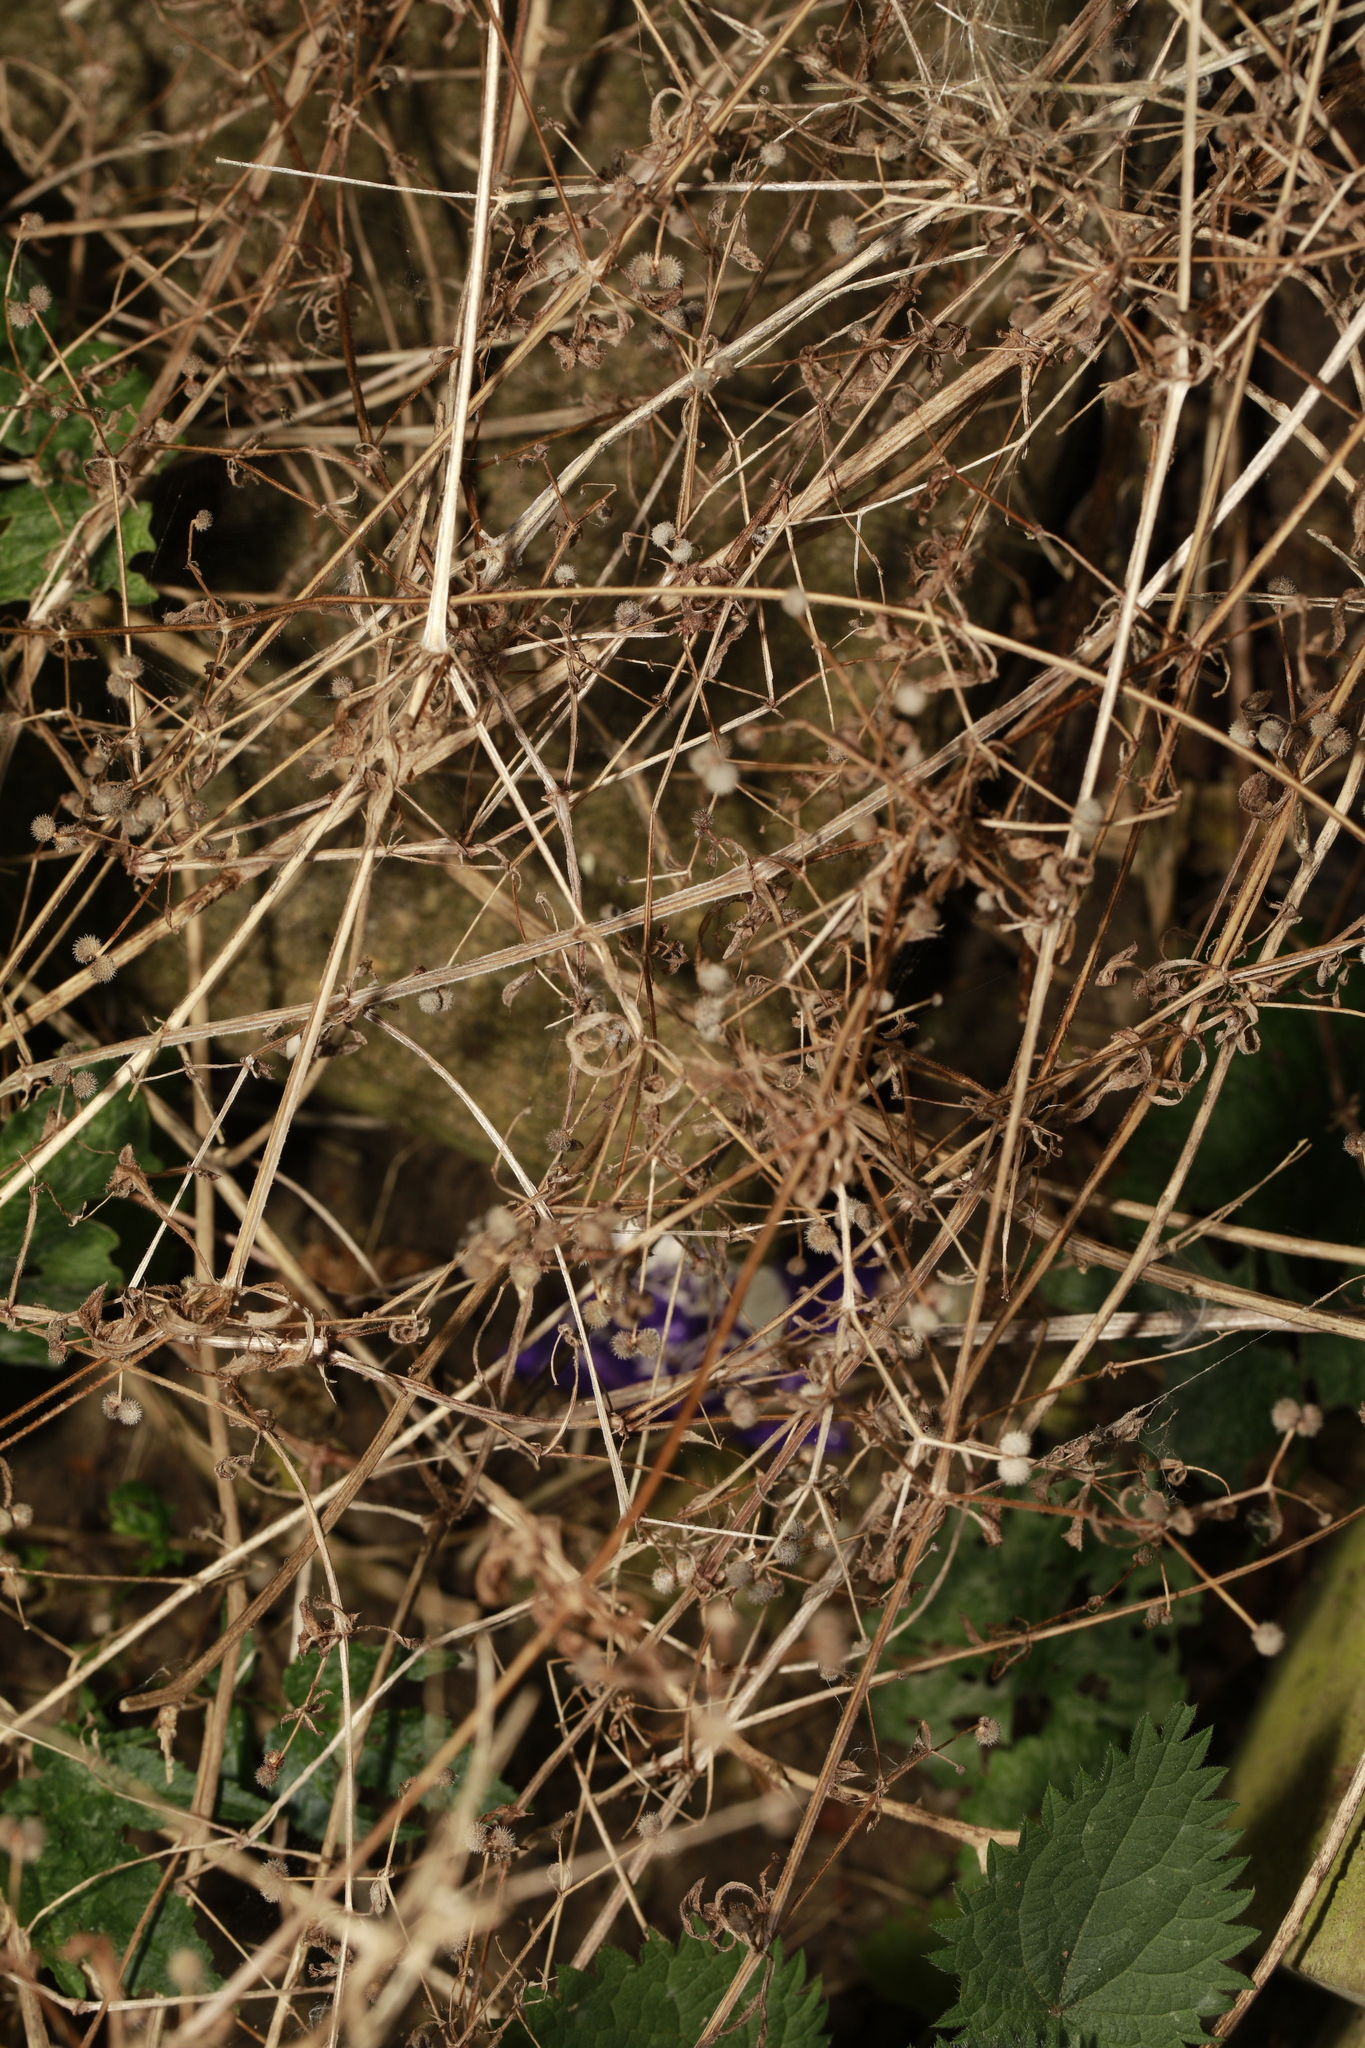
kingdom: Plantae
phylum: Tracheophyta
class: Magnoliopsida
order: Gentianales
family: Rubiaceae
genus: Galium
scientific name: Galium aparine
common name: Cleavers
